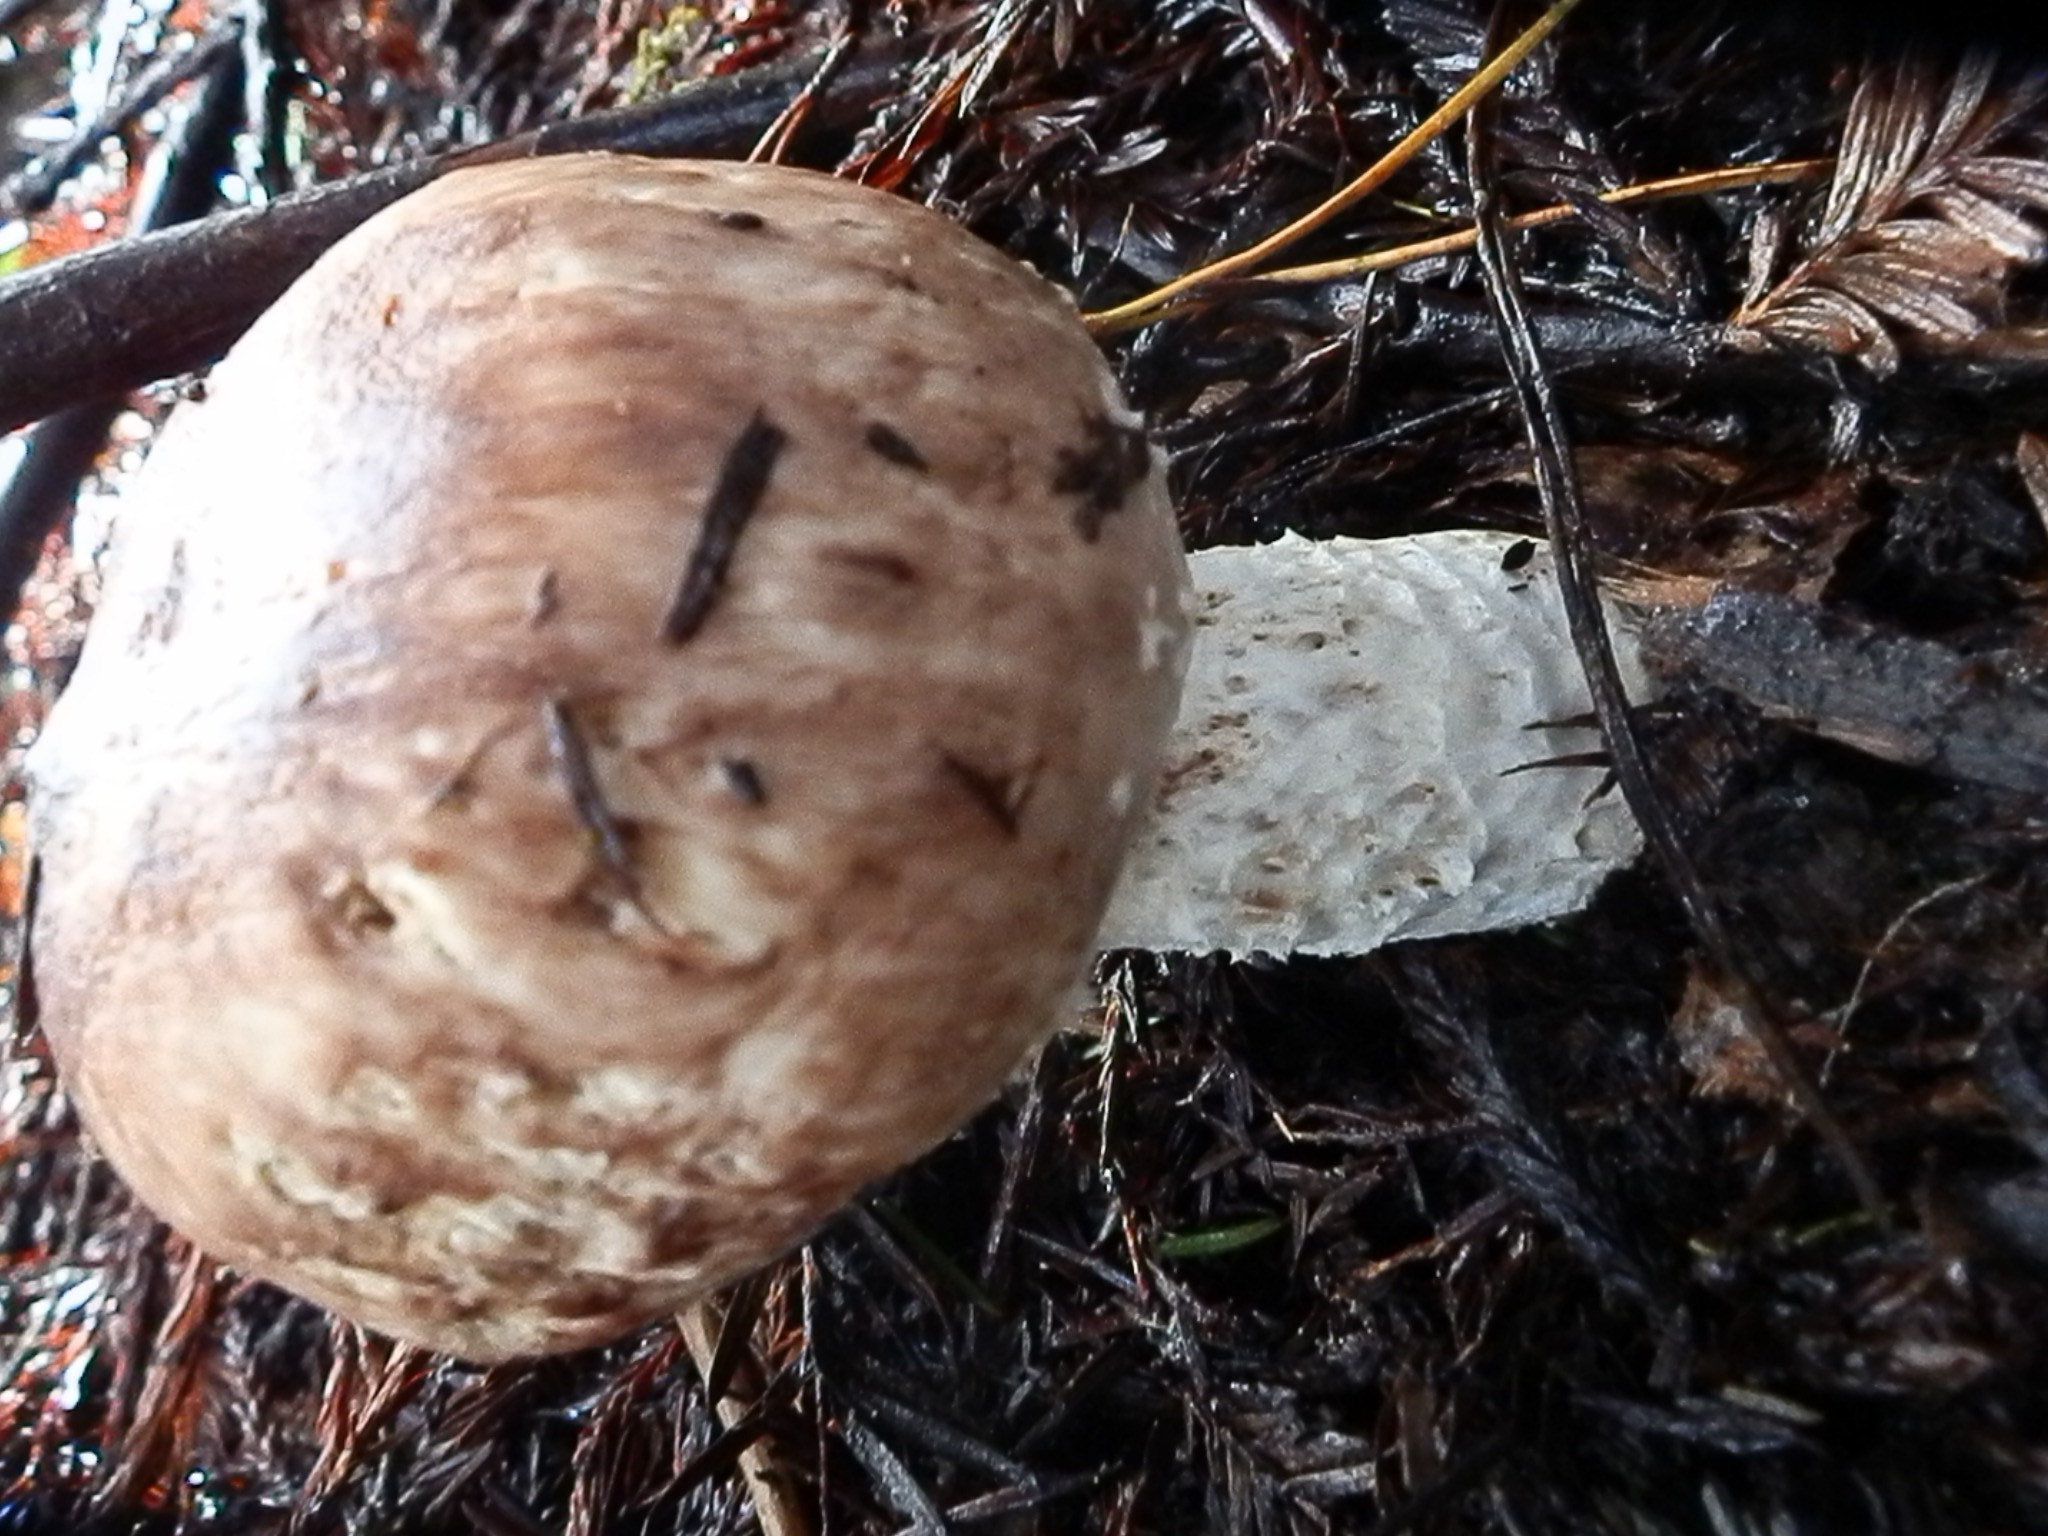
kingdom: Fungi
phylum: Basidiomycota
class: Agaricomycetes
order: Agaricales
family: Agaricaceae
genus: Agaricus
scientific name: Agaricus subrutilescens
